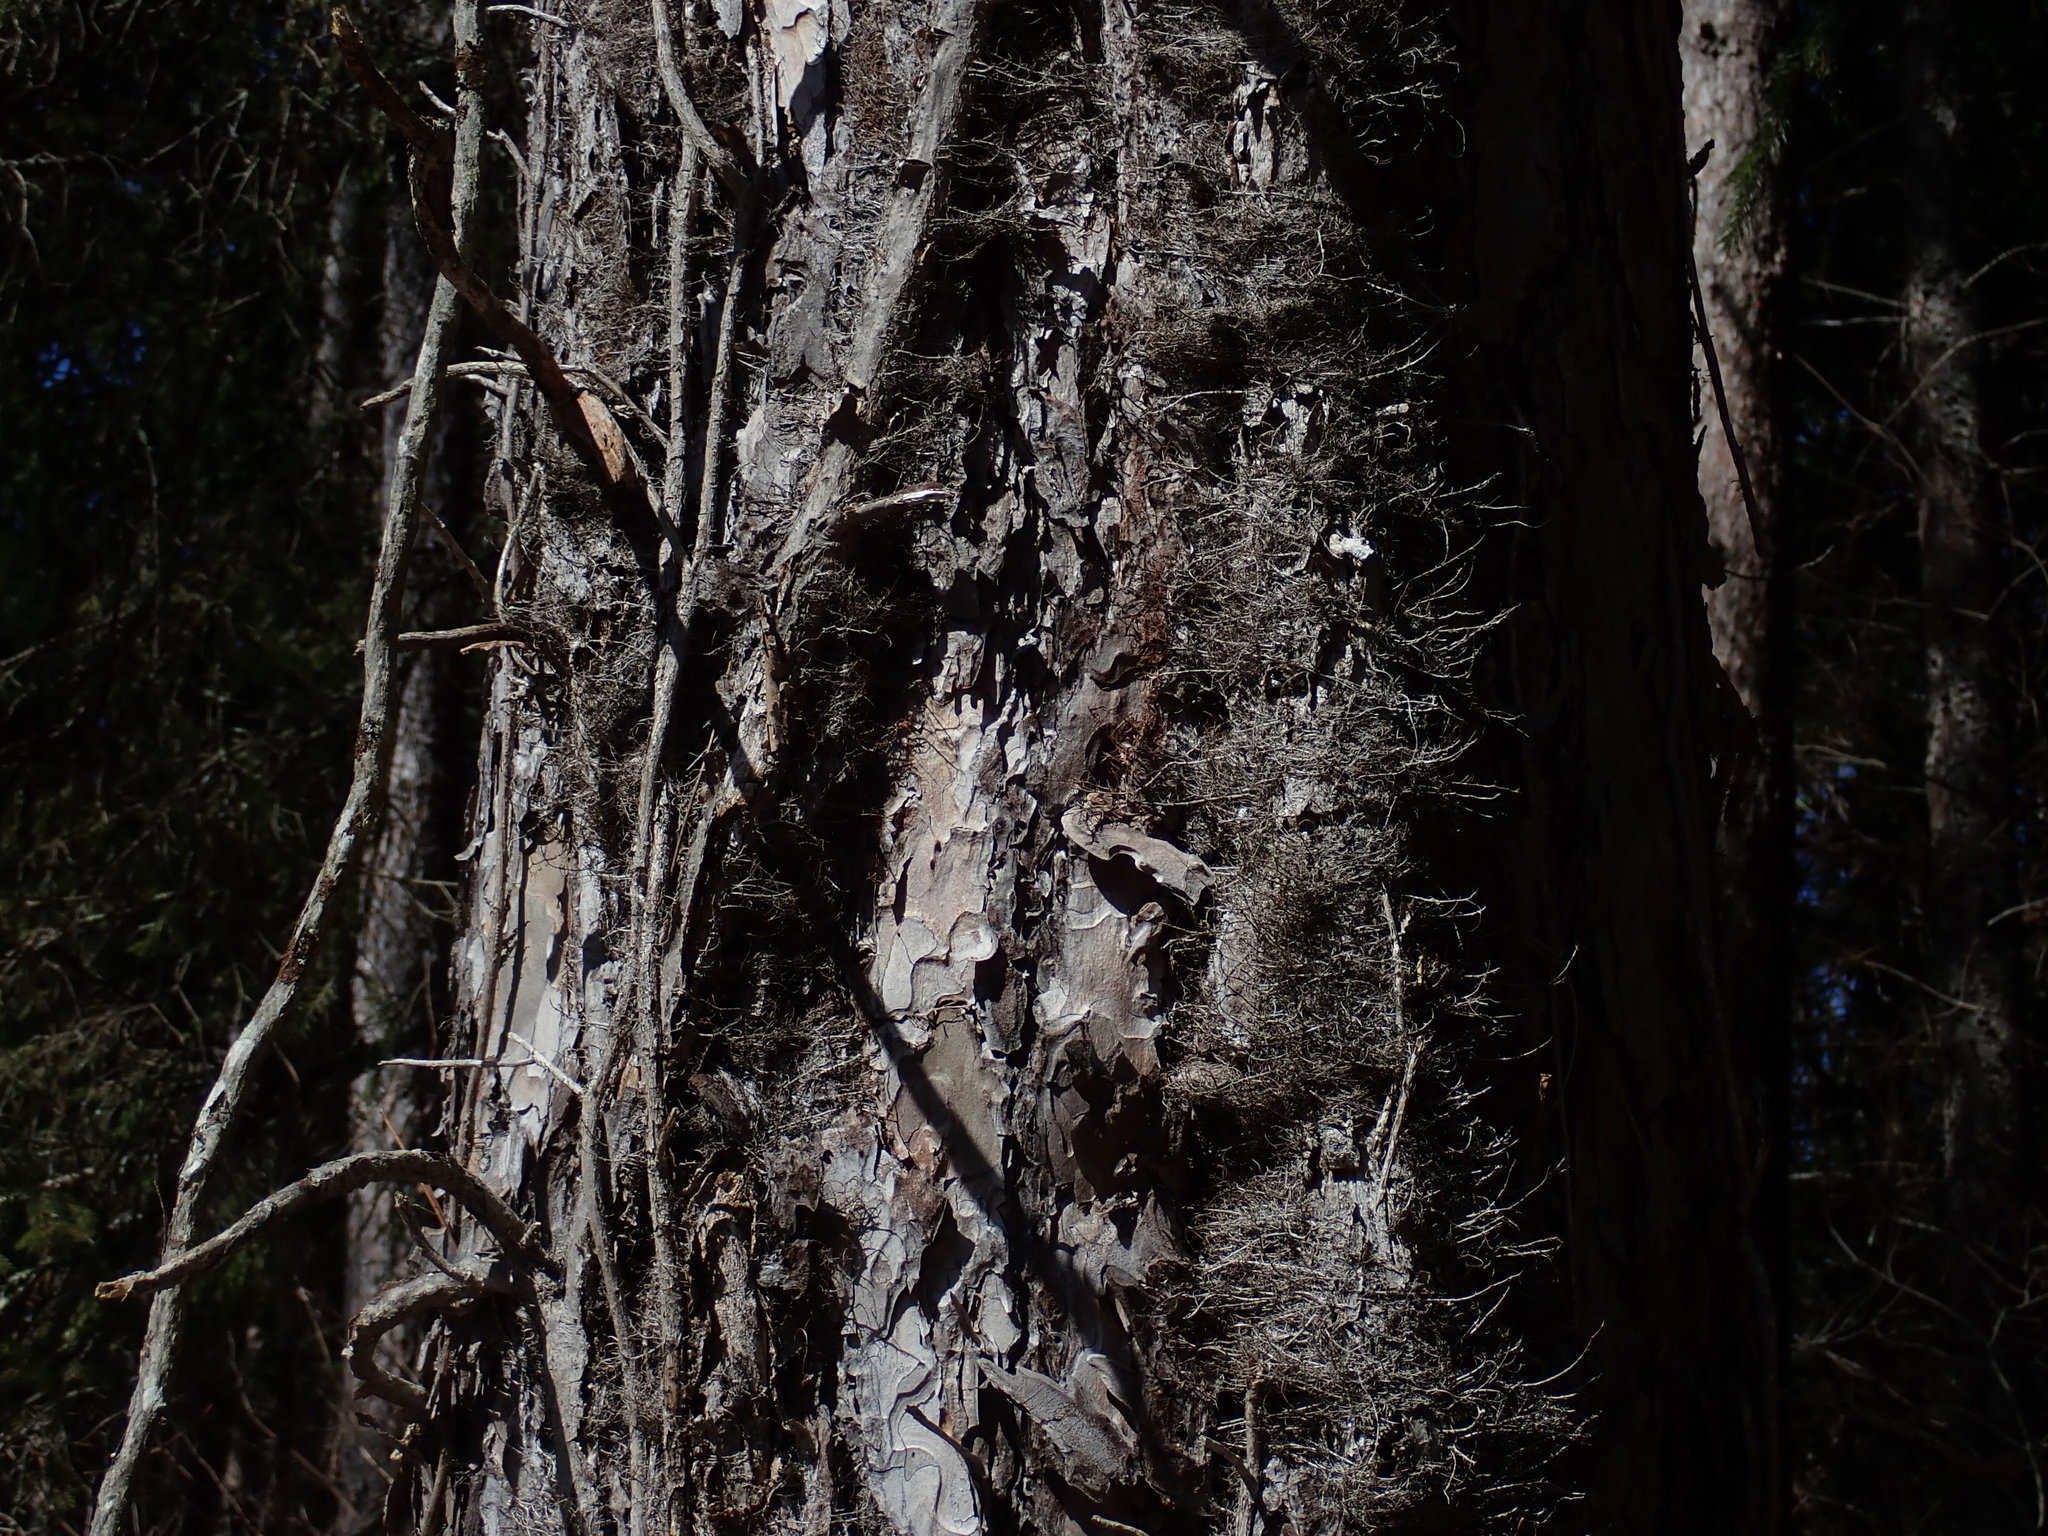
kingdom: Plantae
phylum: Tracheophyta
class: Magnoliopsida
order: Sapindales
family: Anacardiaceae
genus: Toxicodendron
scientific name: Toxicodendron radicans
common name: Poison ivy
